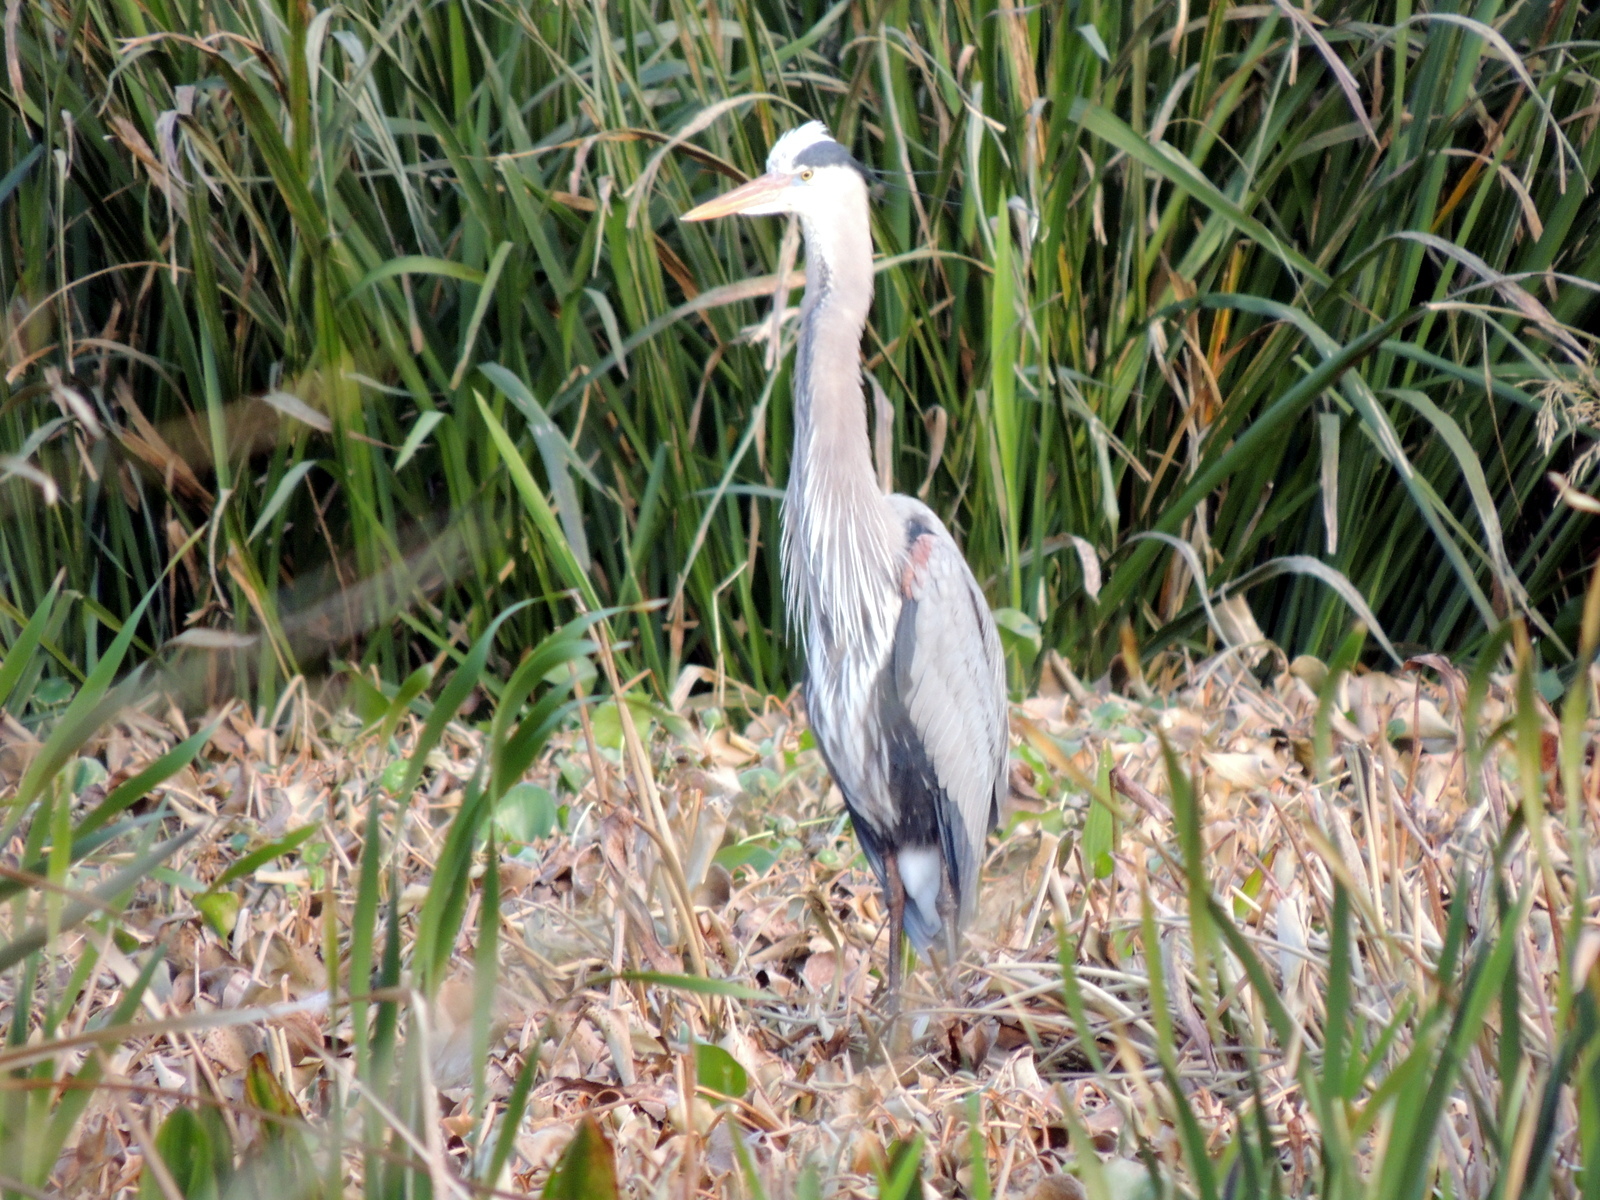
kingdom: Animalia
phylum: Chordata
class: Aves
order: Pelecaniformes
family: Ardeidae
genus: Ardea
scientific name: Ardea herodias
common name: Great blue heron
